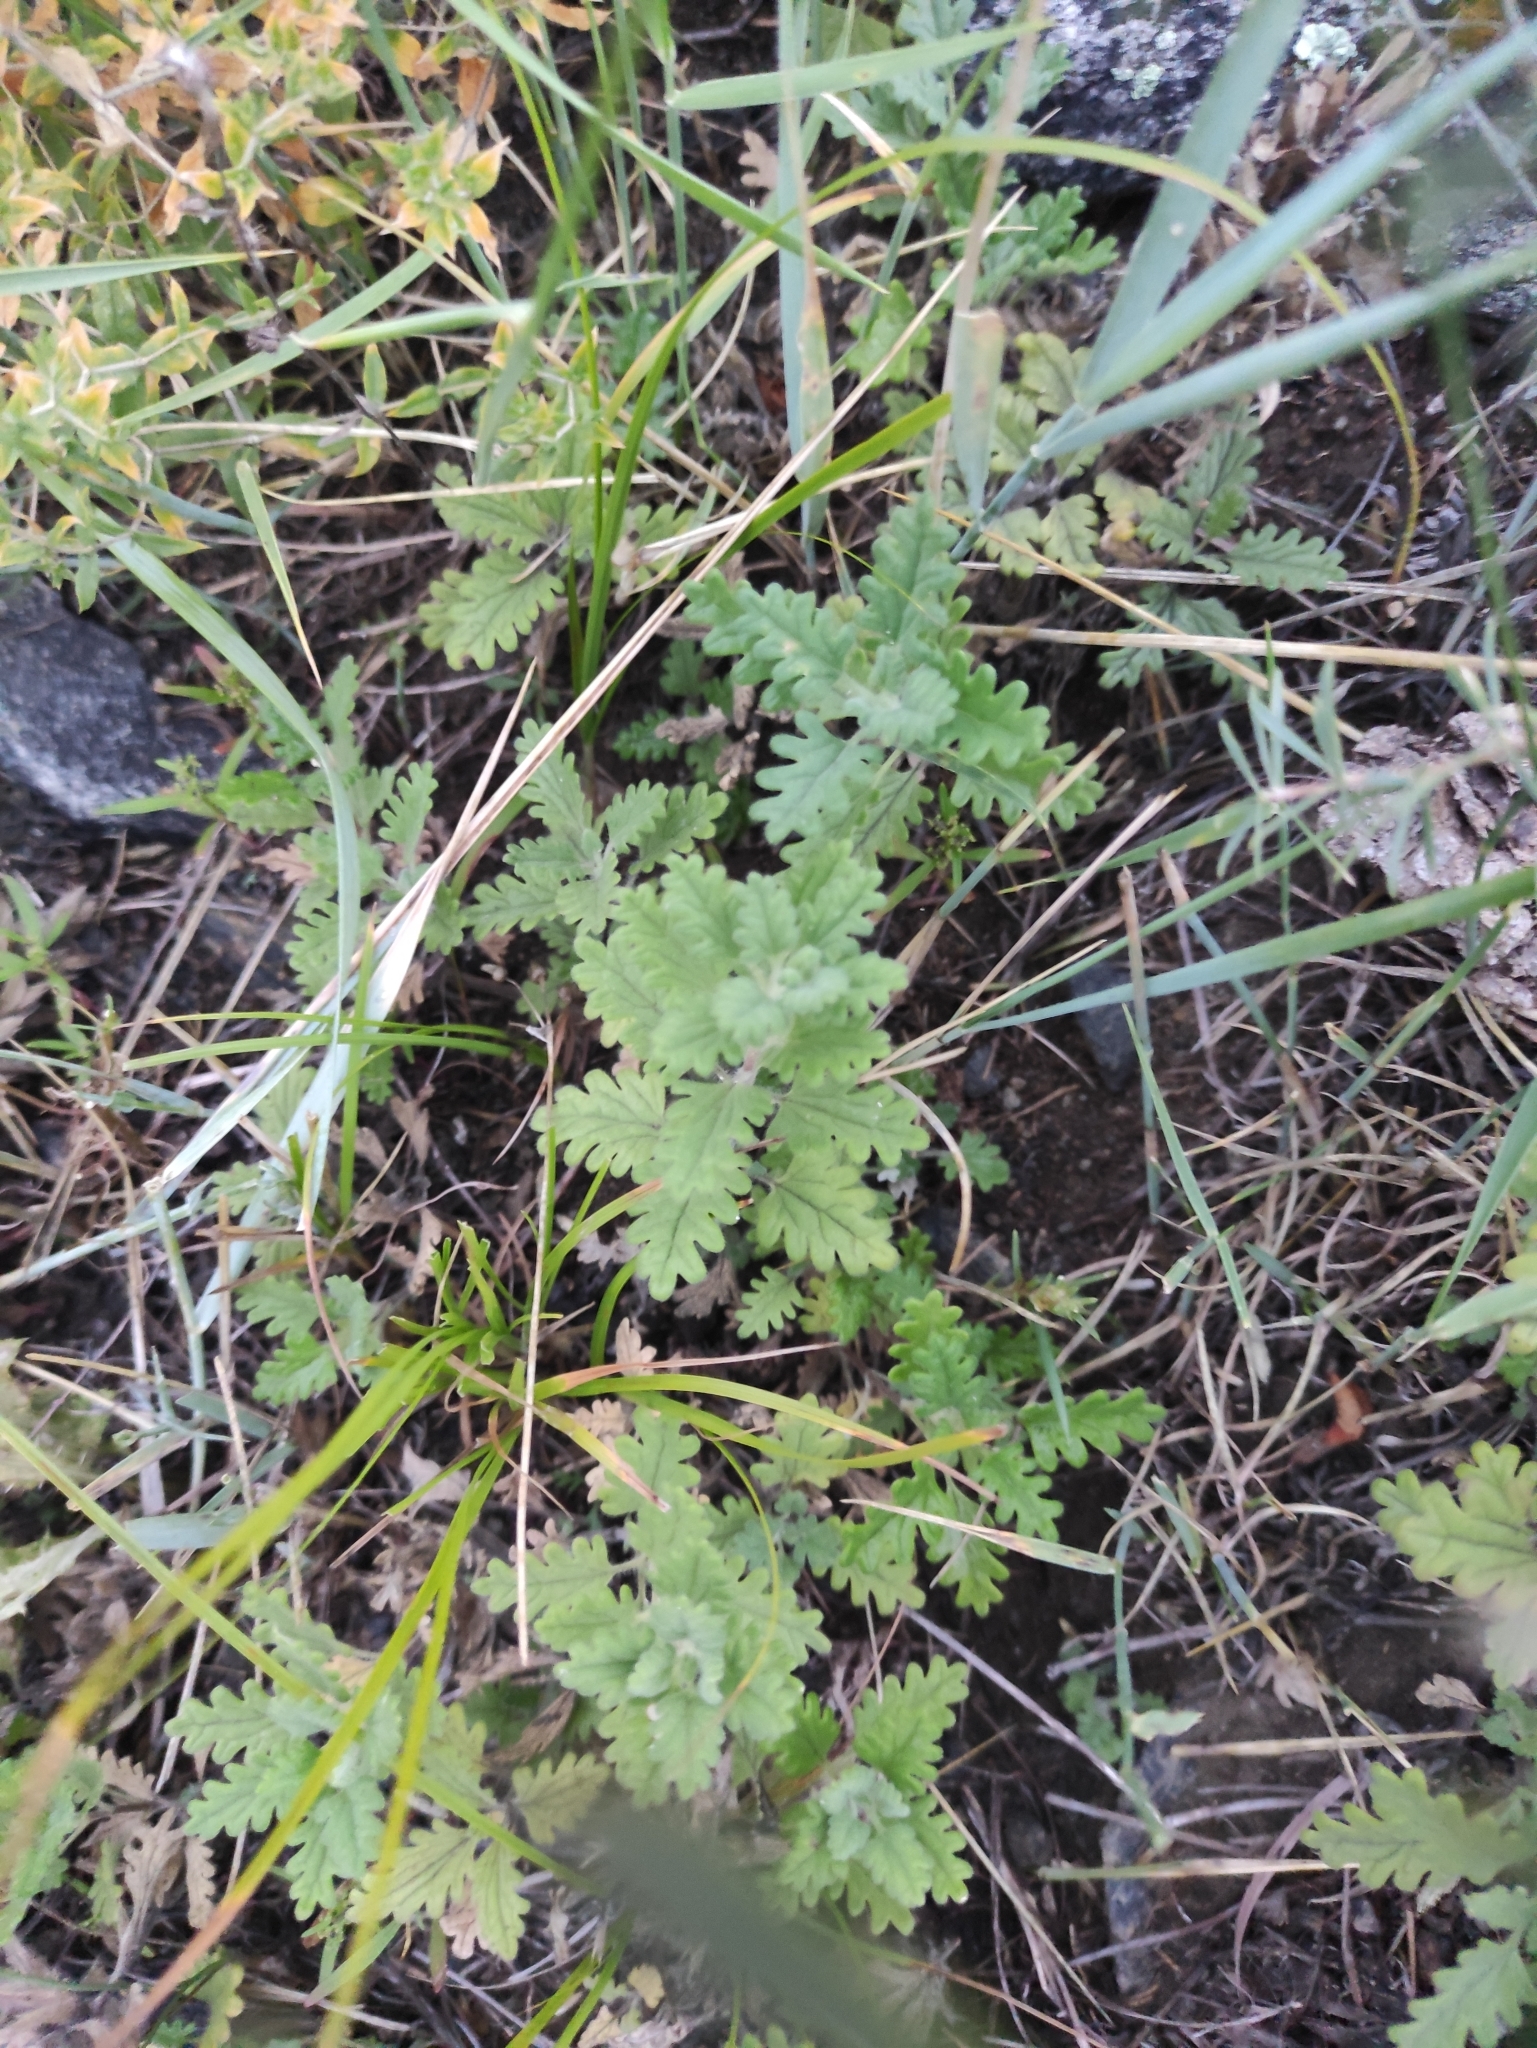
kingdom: Plantae
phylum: Tracheophyta
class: Magnoliopsida
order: Lamiales
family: Lamiaceae
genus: Dracocephalum
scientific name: Dracocephalum pinnatum
